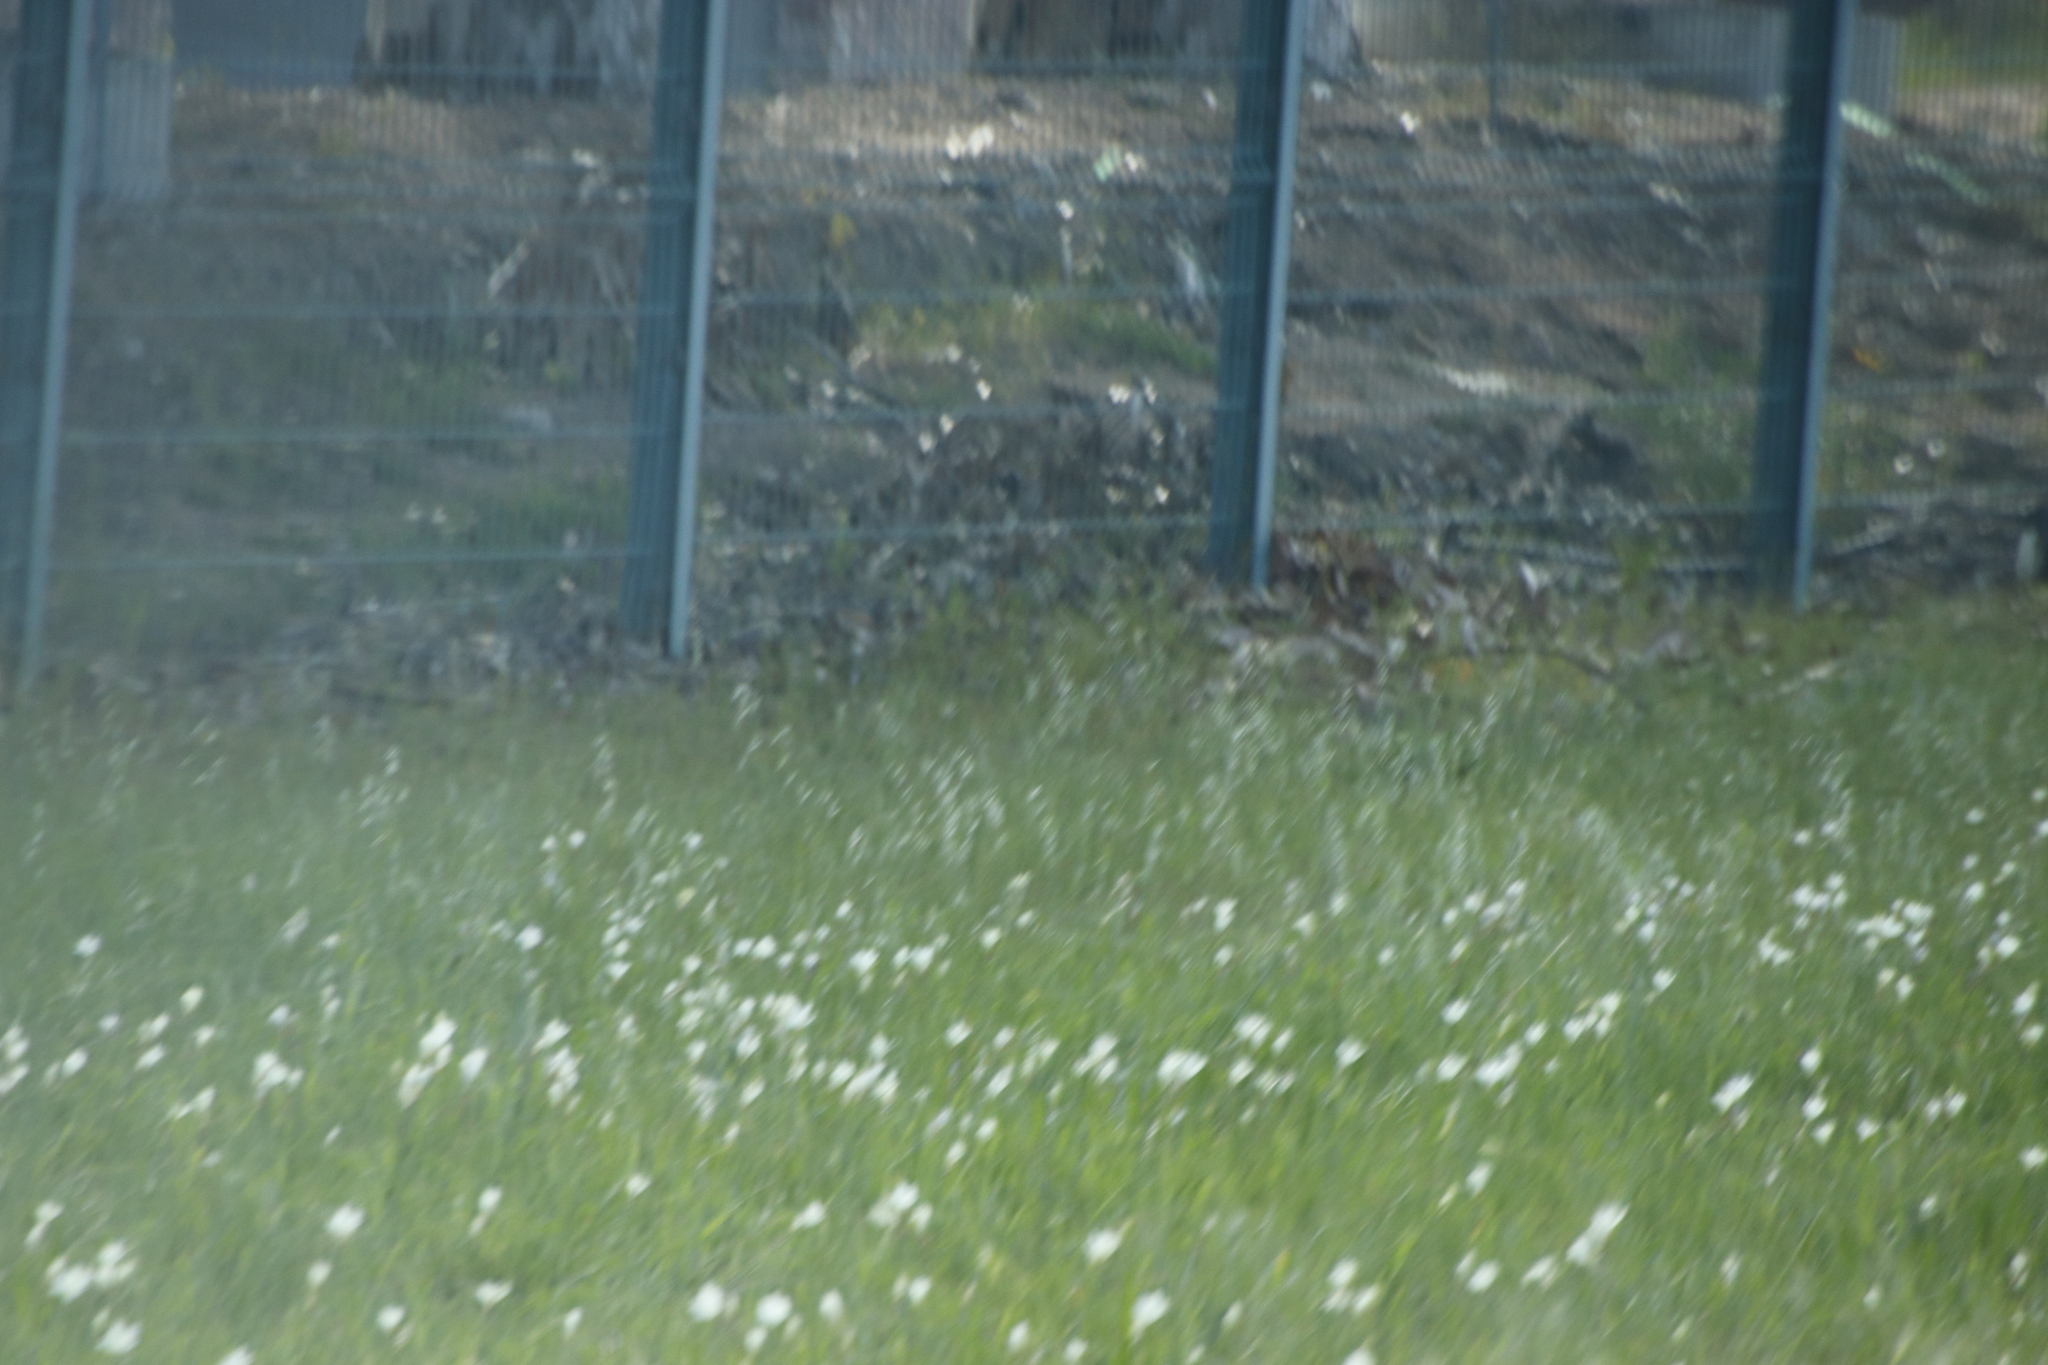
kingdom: Plantae
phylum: Tracheophyta
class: Liliopsida
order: Asparagales
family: Iridaceae
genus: Sparaxis
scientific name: Sparaxis bulbifera
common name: Harlequin-flower
